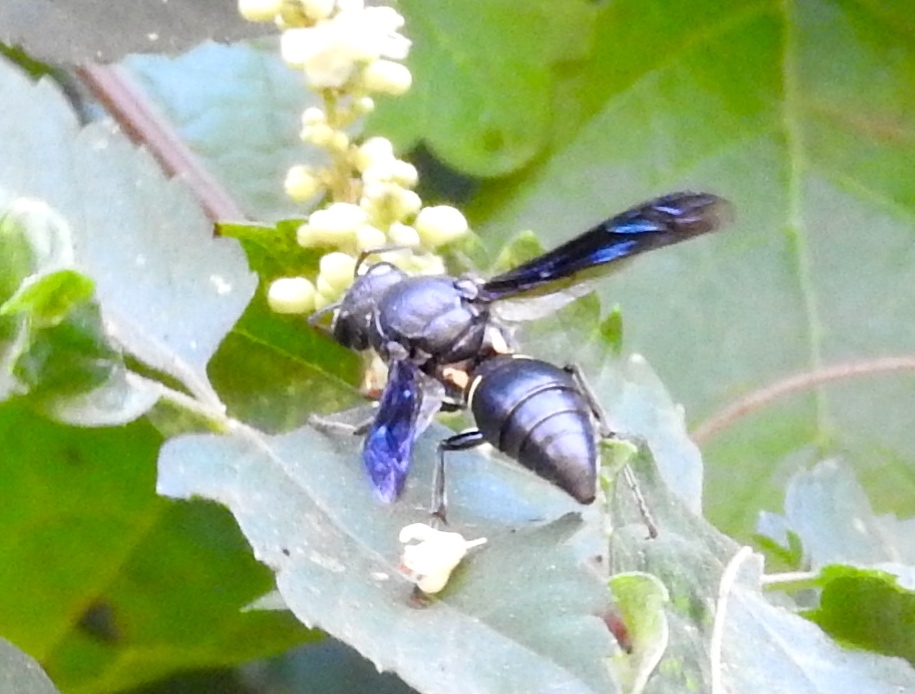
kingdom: Animalia
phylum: Arthropoda
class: Insecta
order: Hymenoptera
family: Eumenidae
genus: Monobia
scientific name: Monobia biangulata
